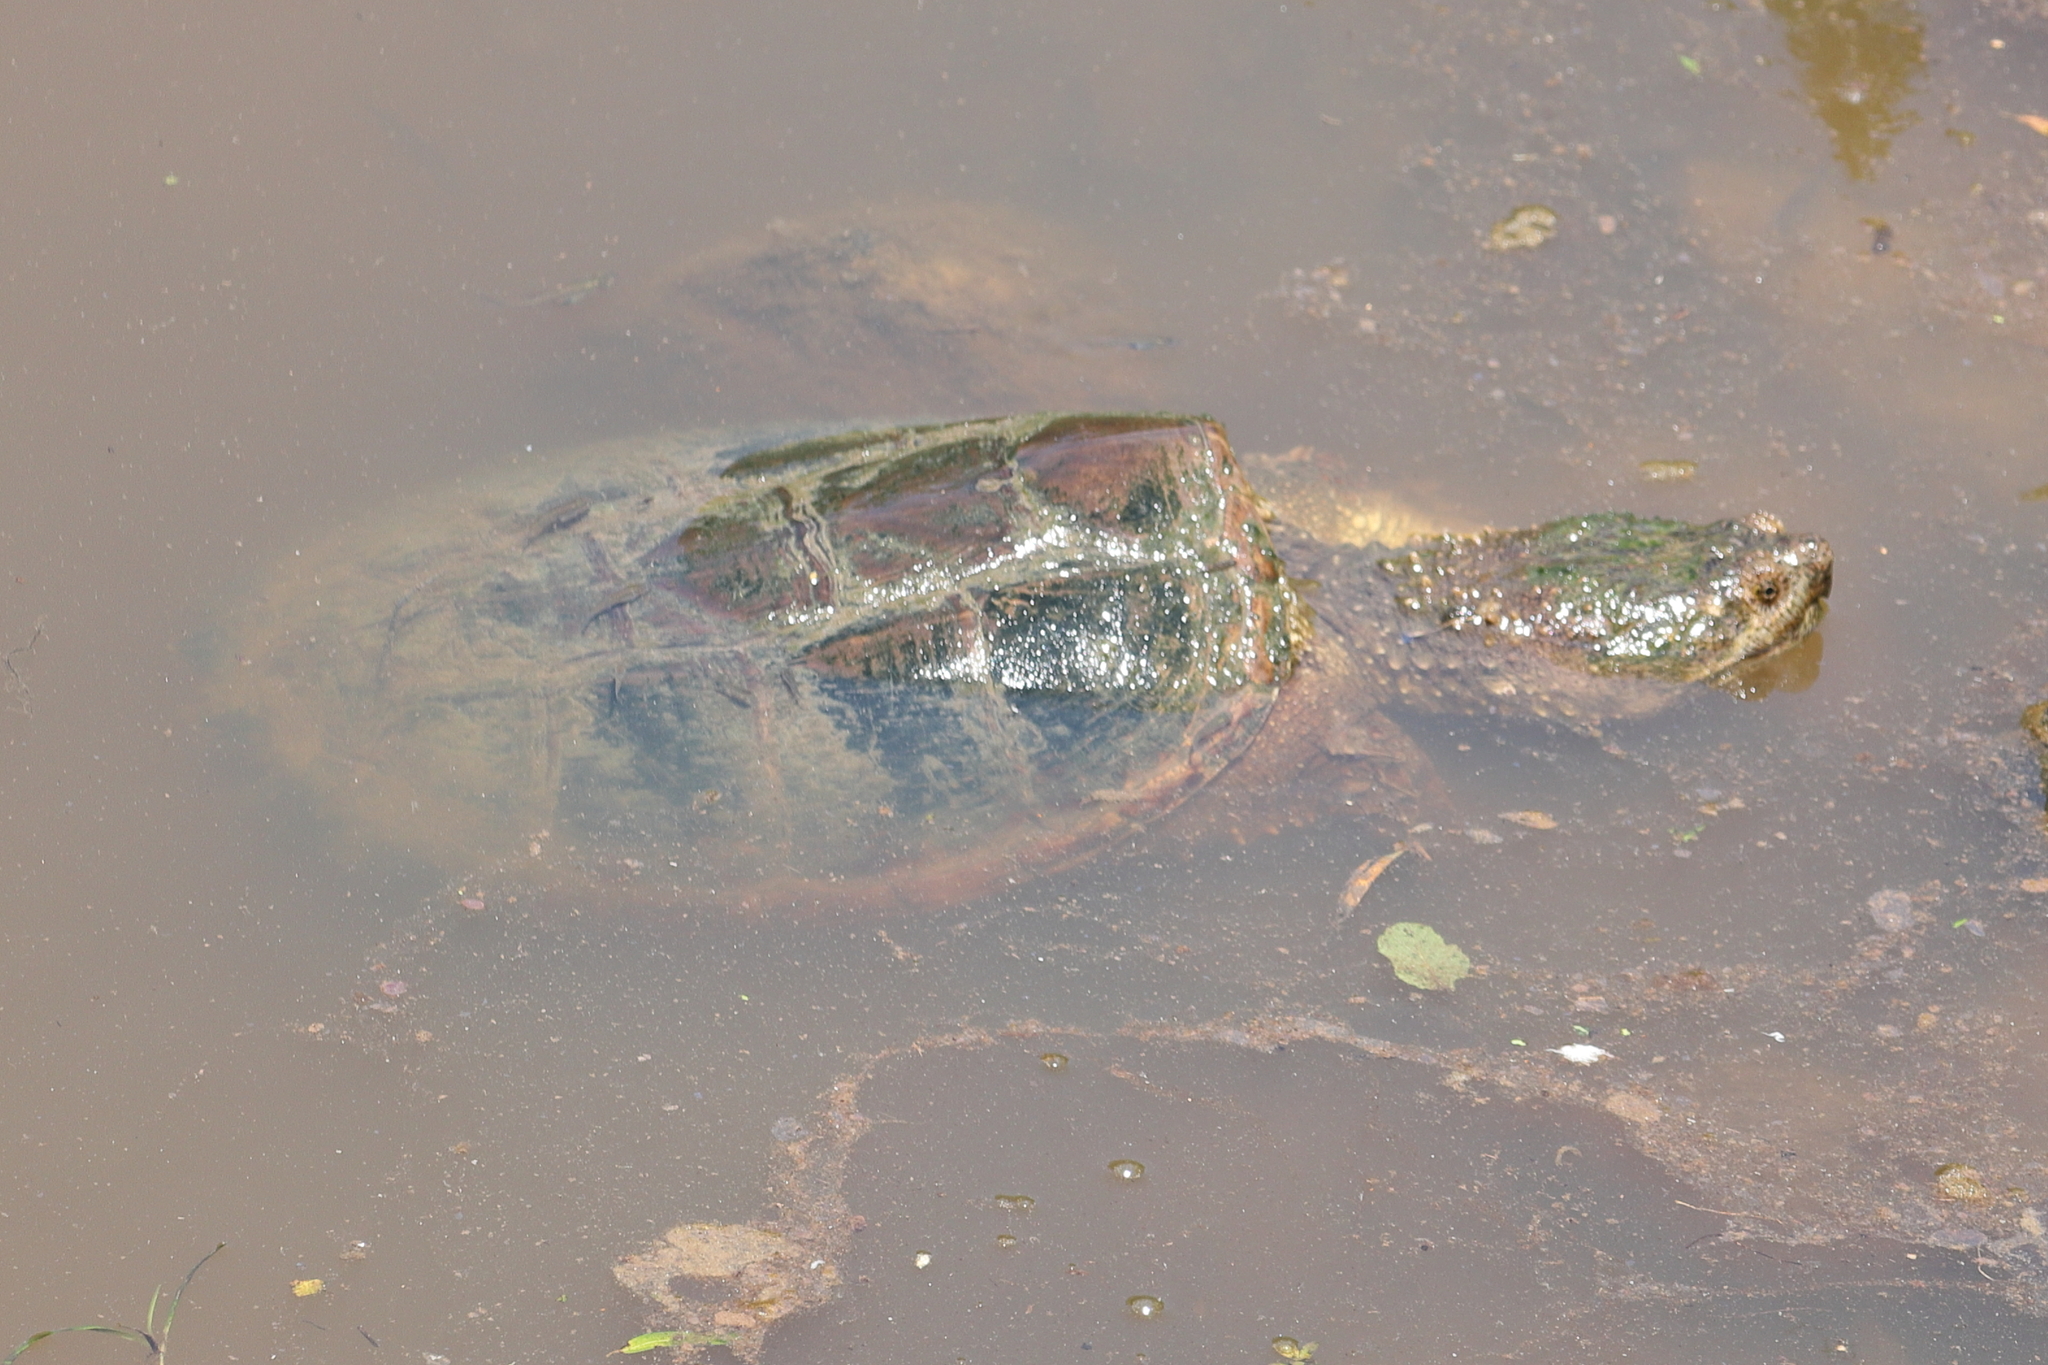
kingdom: Animalia
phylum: Chordata
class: Testudines
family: Chelydridae
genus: Chelydra
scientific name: Chelydra serpentina
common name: Common snapping turtle
